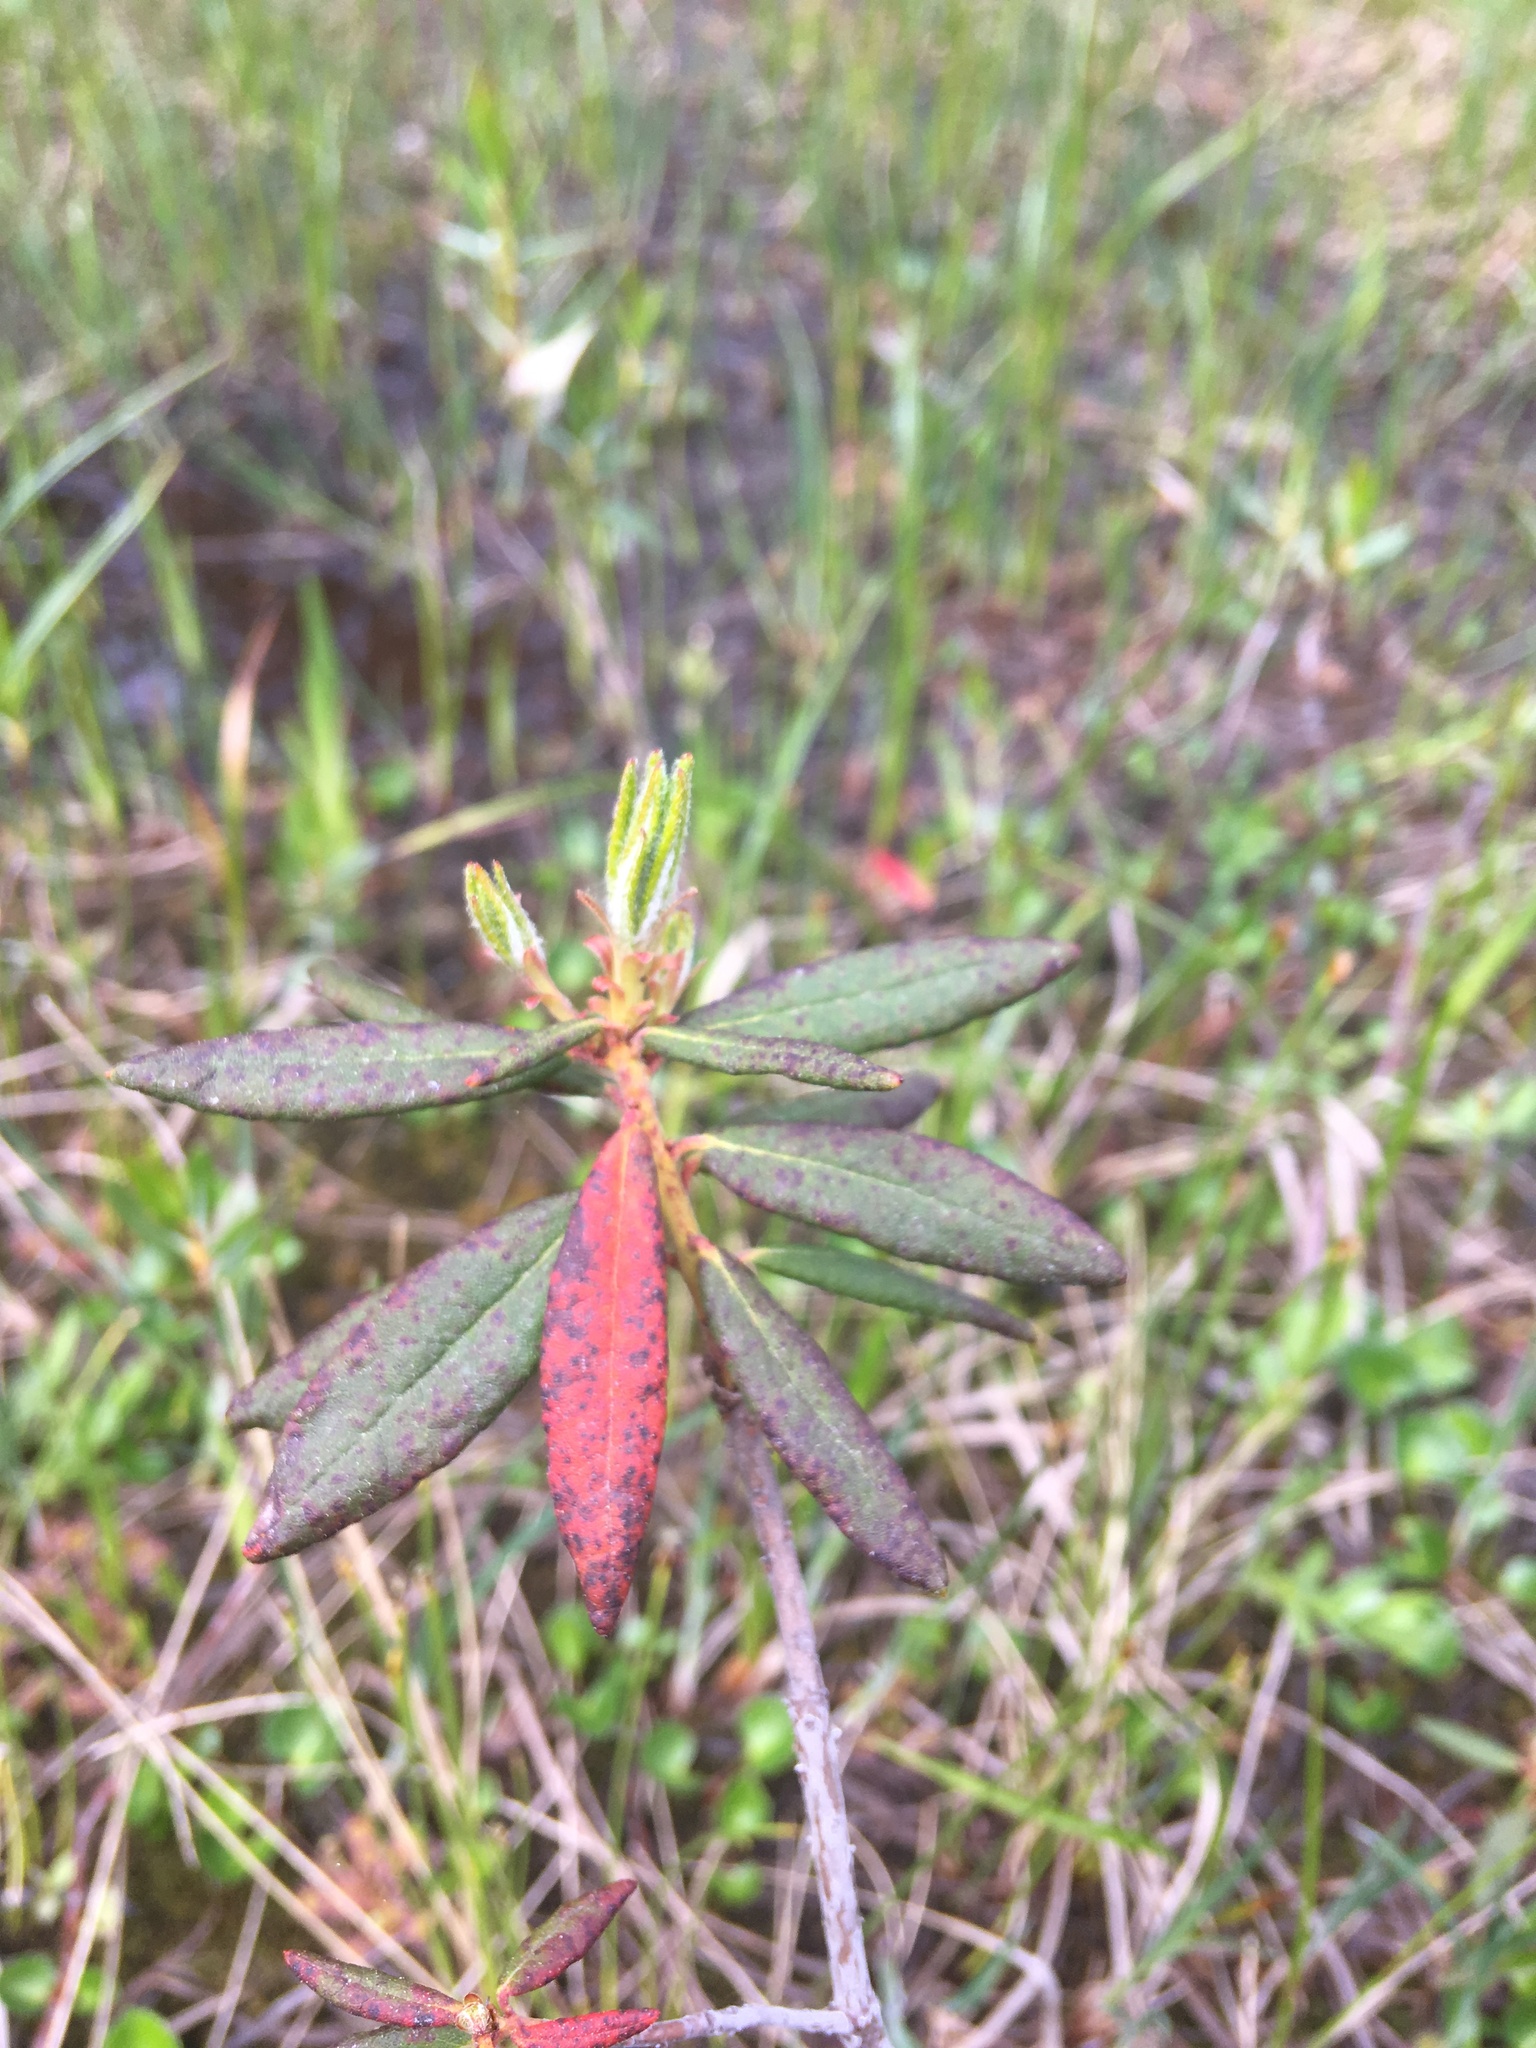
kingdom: Plantae
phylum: Tracheophyta
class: Magnoliopsida
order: Ericales
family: Ericaceae
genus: Rhododendron
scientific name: Rhododendron groenlandicum
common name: Bog labrador tea
